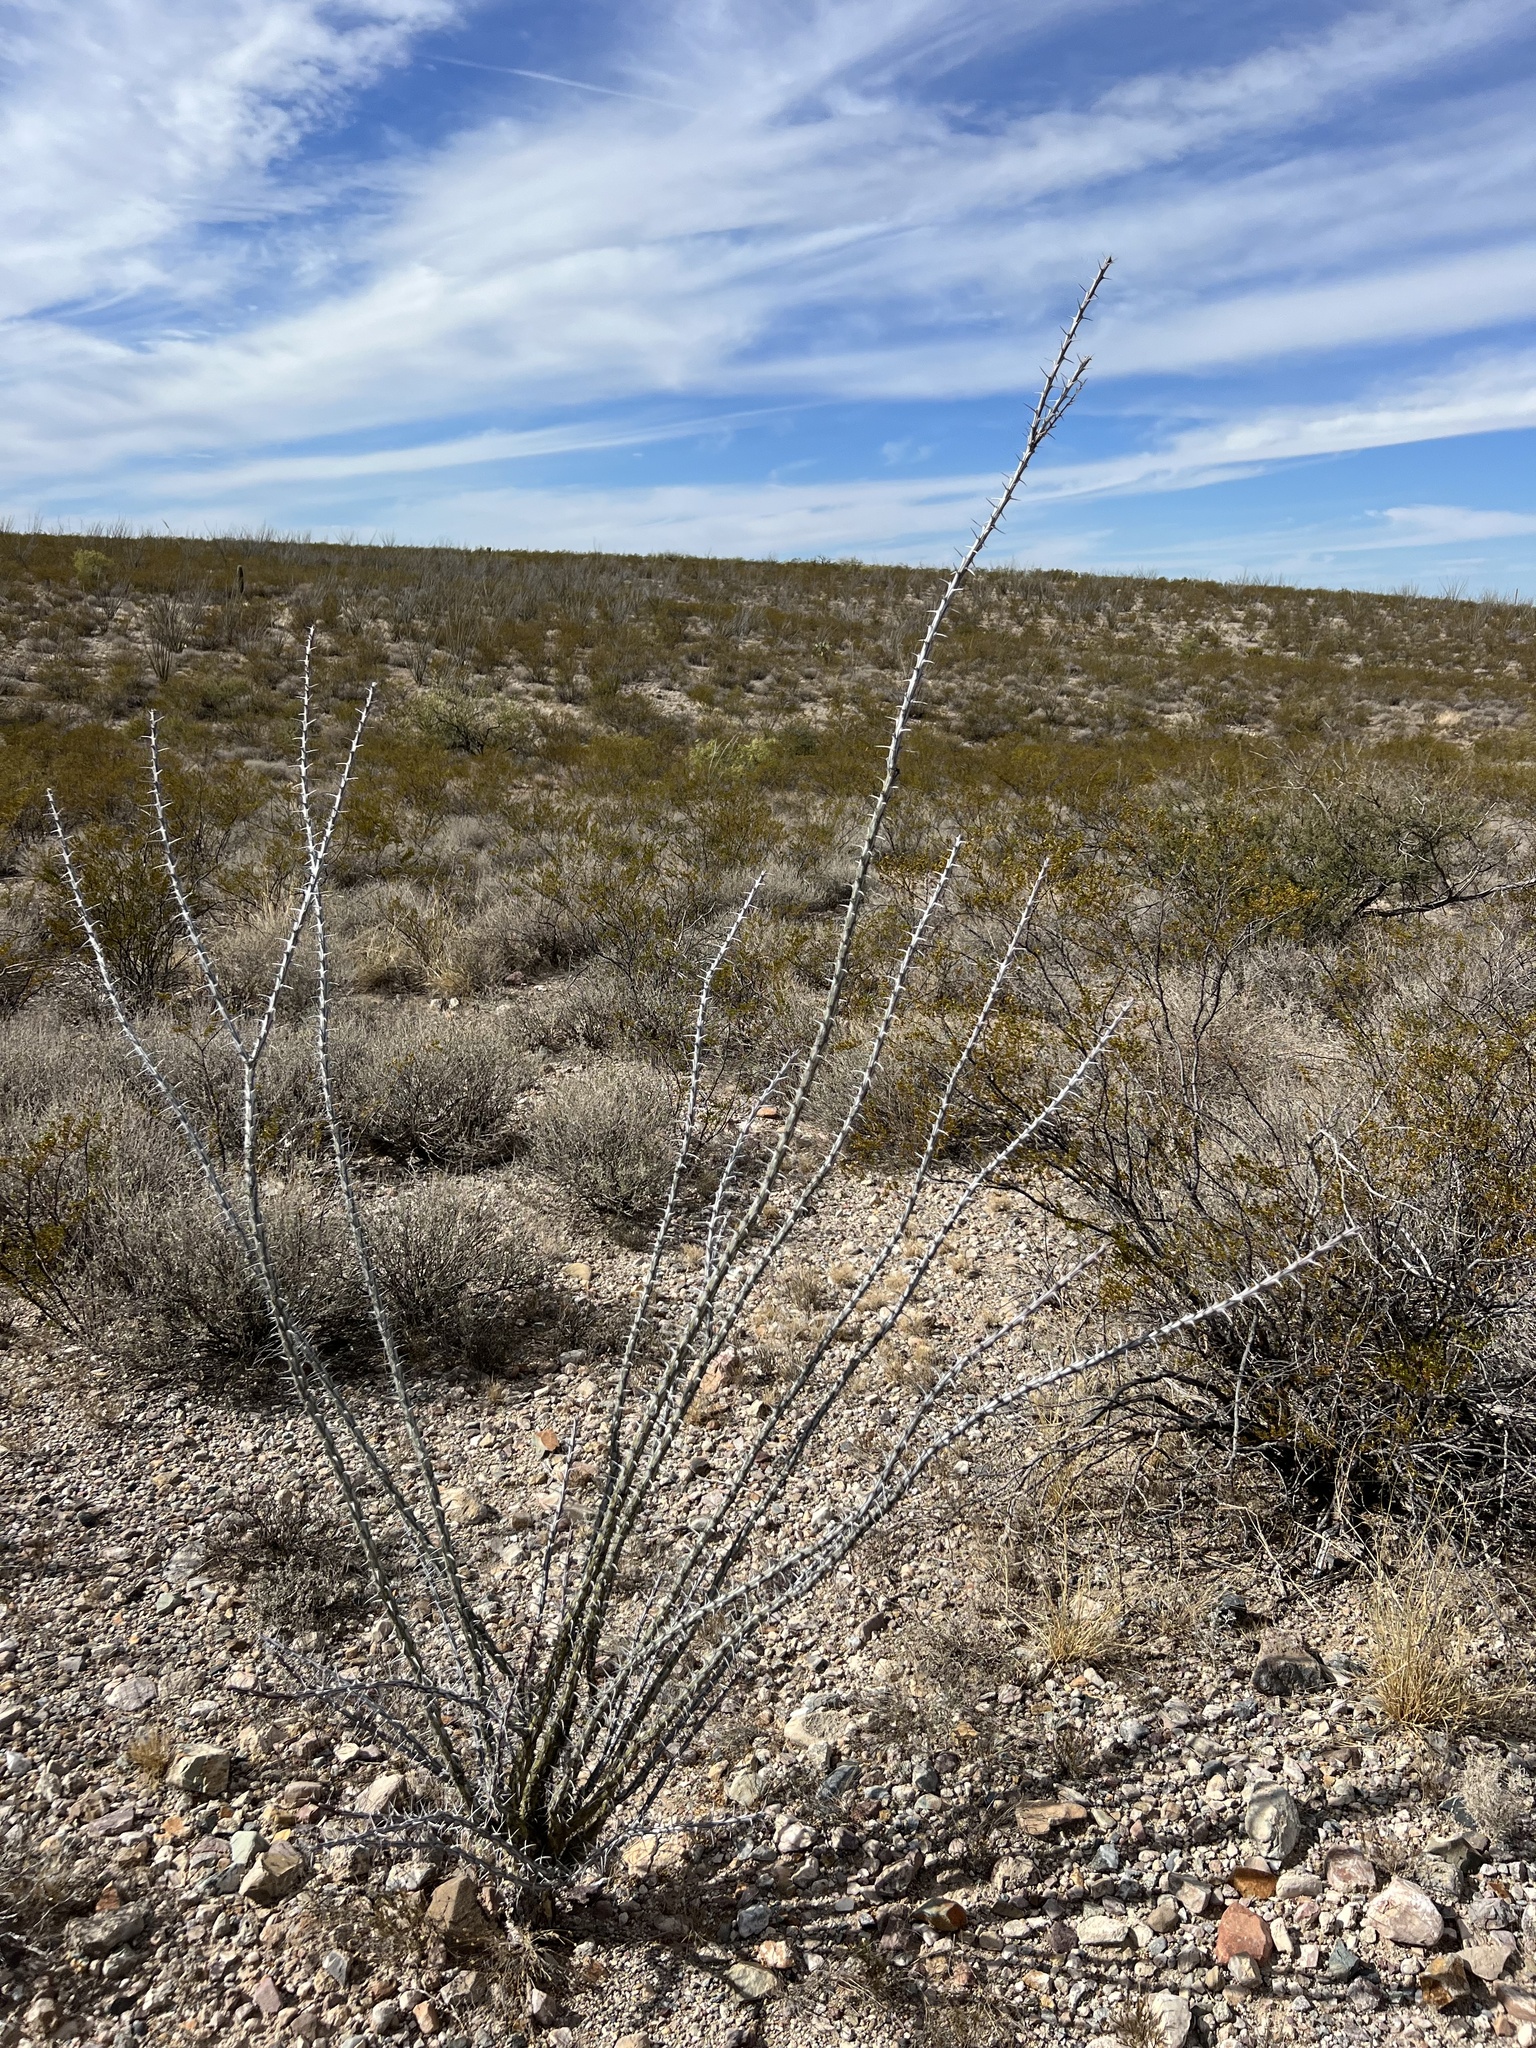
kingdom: Plantae
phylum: Tracheophyta
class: Magnoliopsida
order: Ericales
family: Fouquieriaceae
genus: Fouquieria
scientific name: Fouquieria splendens
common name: Vine-cactus
